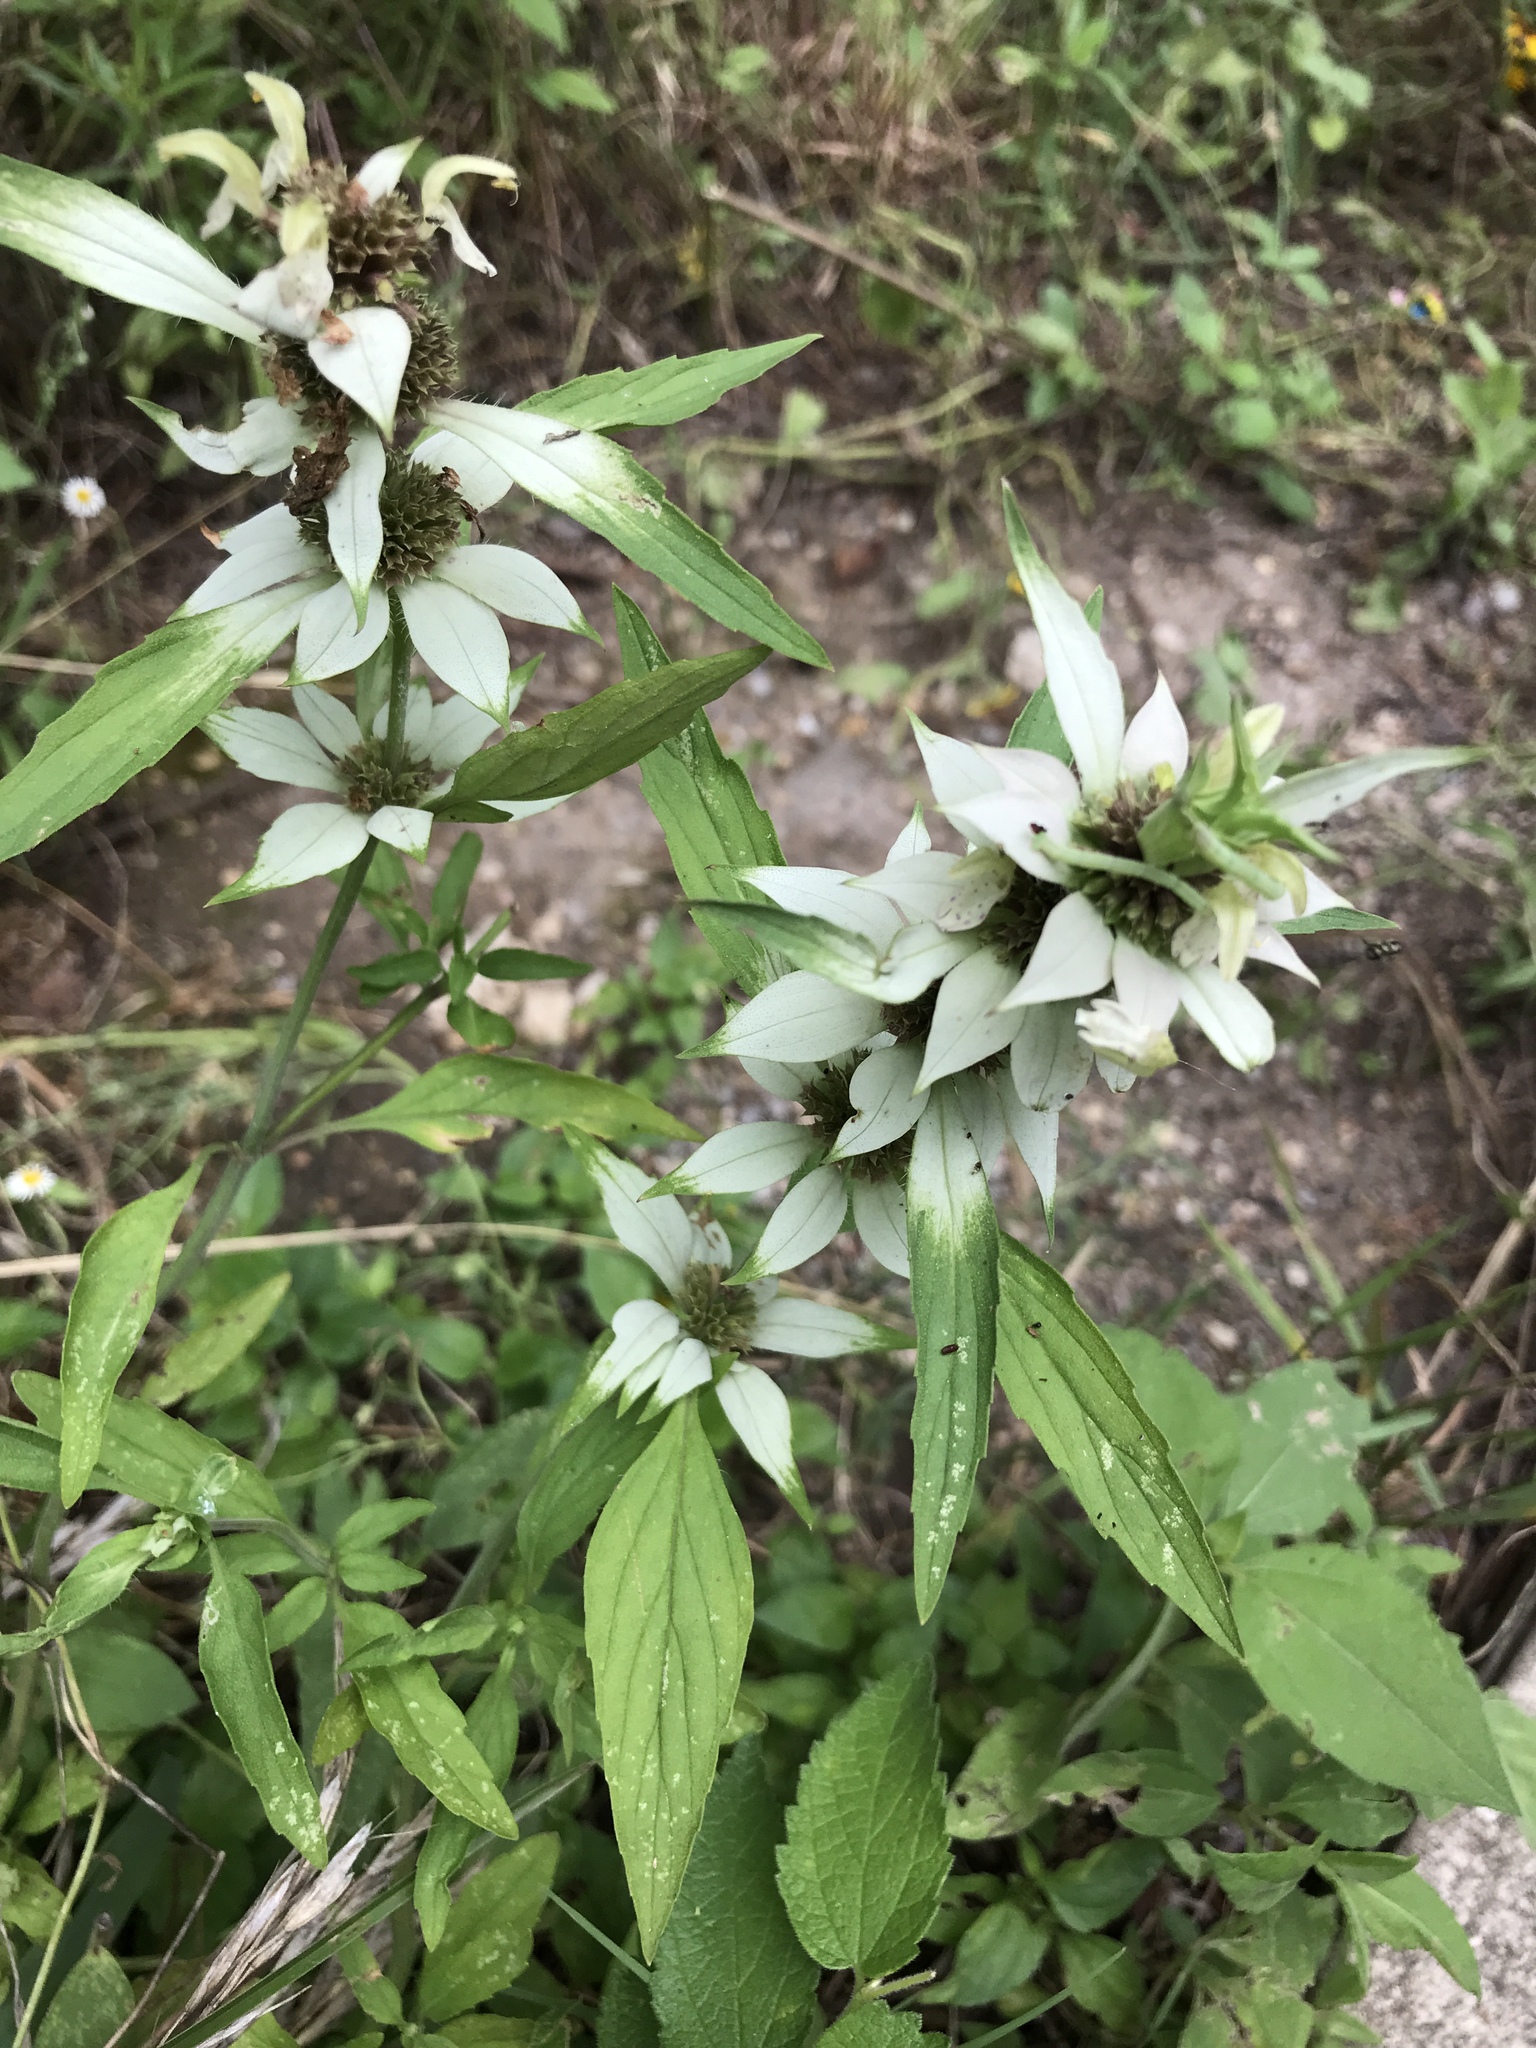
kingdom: Plantae
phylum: Tracheophyta
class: Magnoliopsida
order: Lamiales
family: Lamiaceae
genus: Monarda
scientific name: Monarda punctata
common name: Dotted monarda
